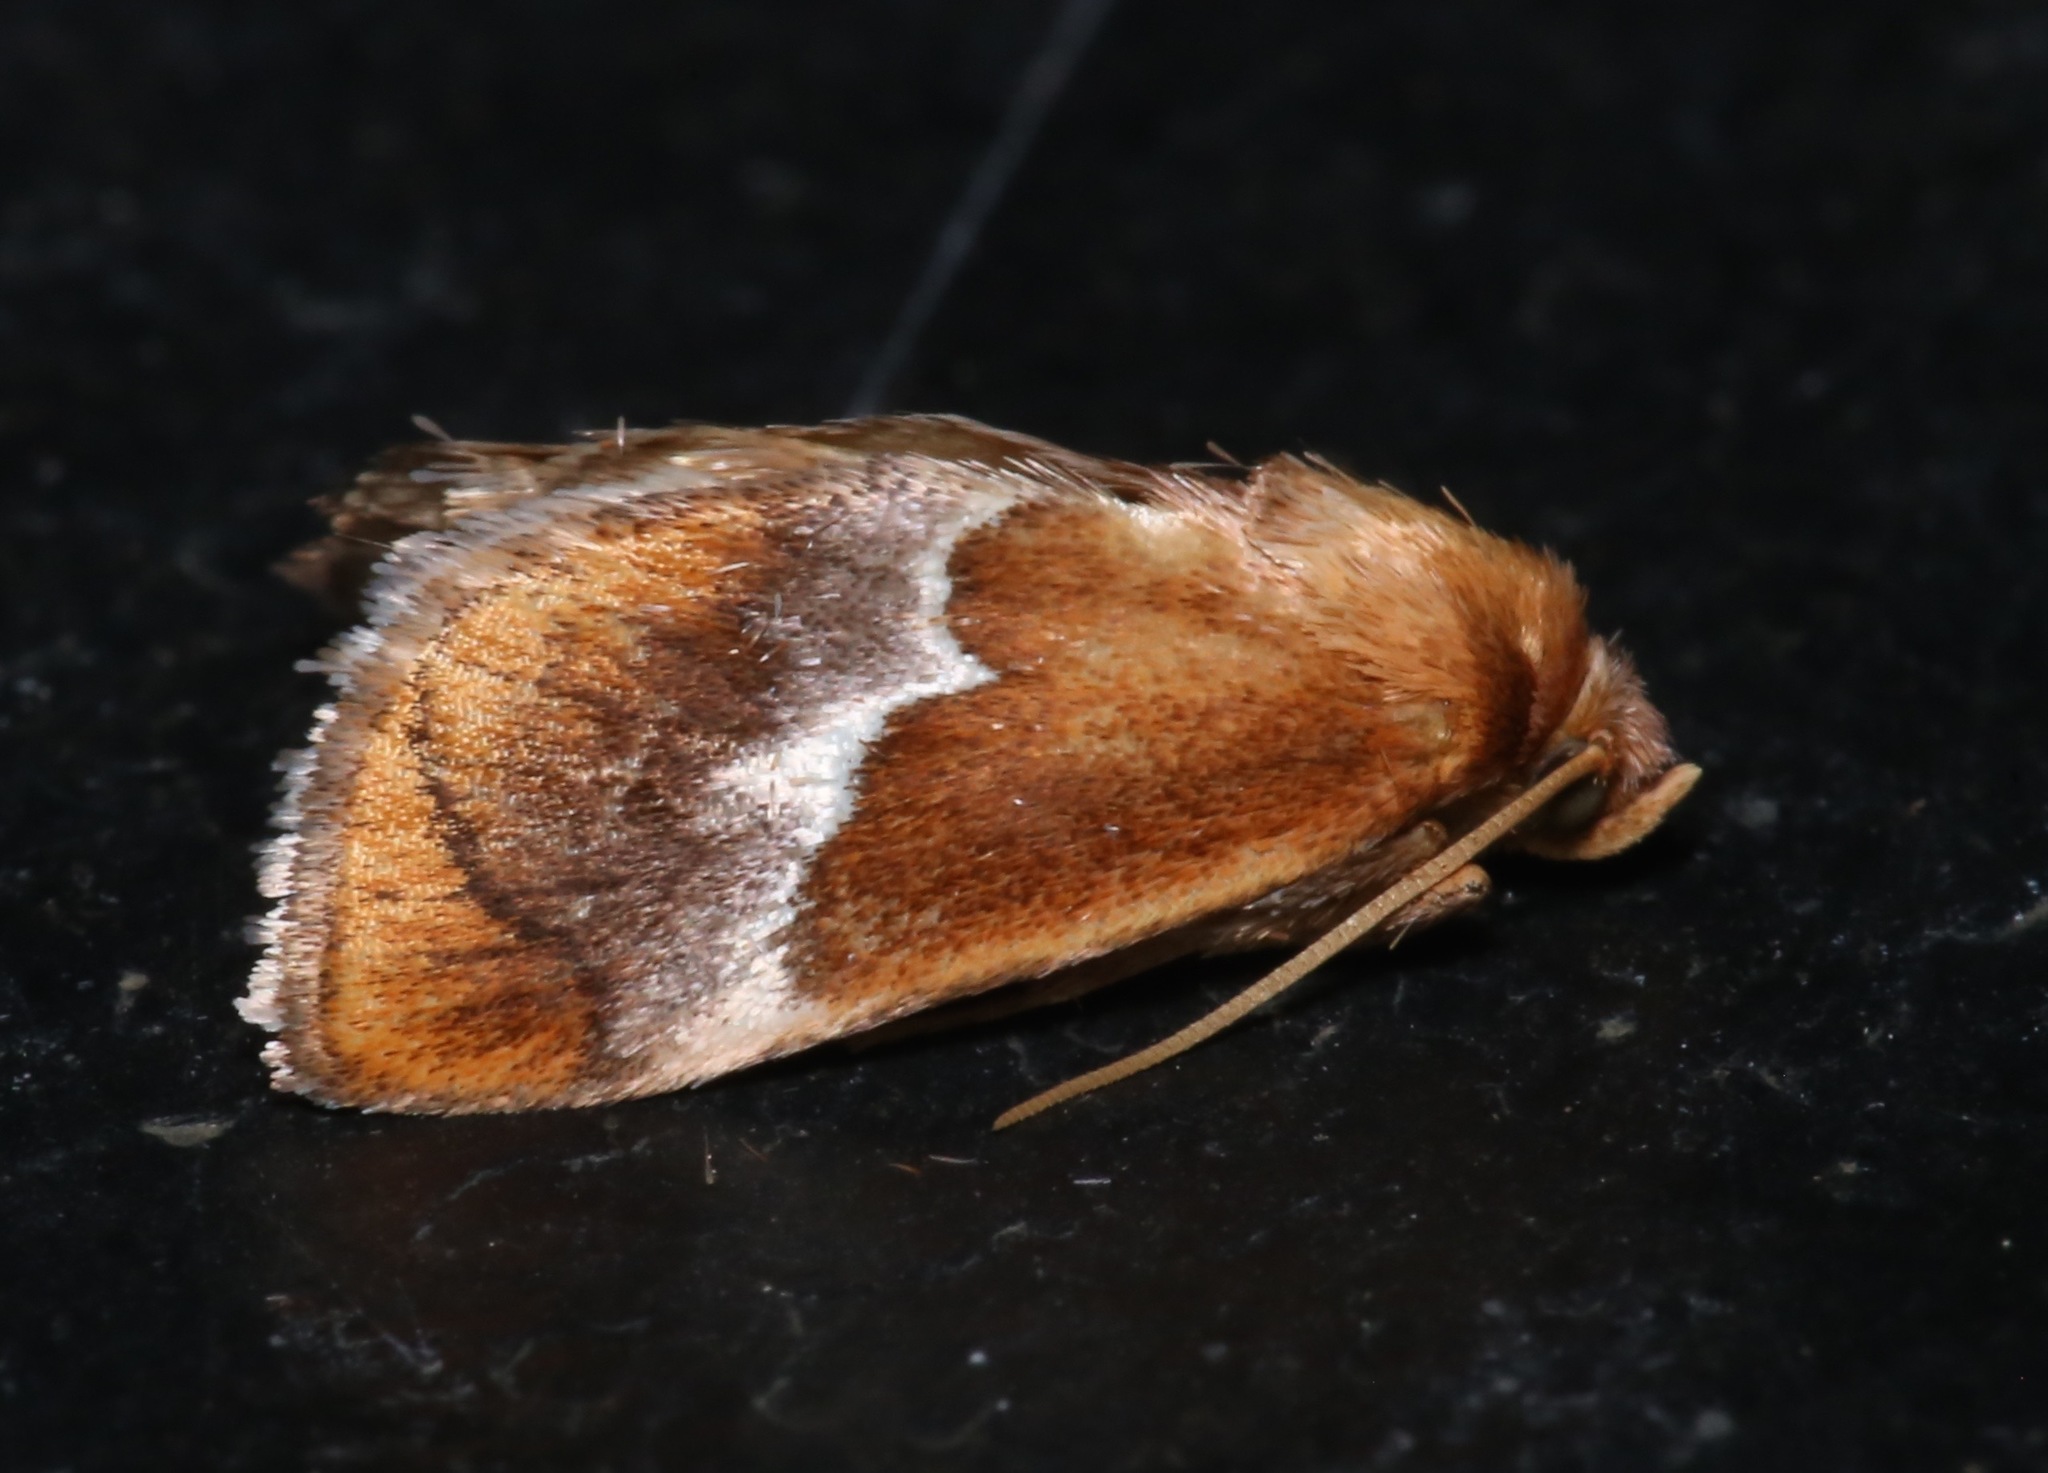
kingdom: Animalia
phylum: Arthropoda
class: Insecta
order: Lepidoptera
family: Limacodidae
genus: Lithacodes
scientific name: Lithacodes fasciola
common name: Yellow-shouldered slug moth
